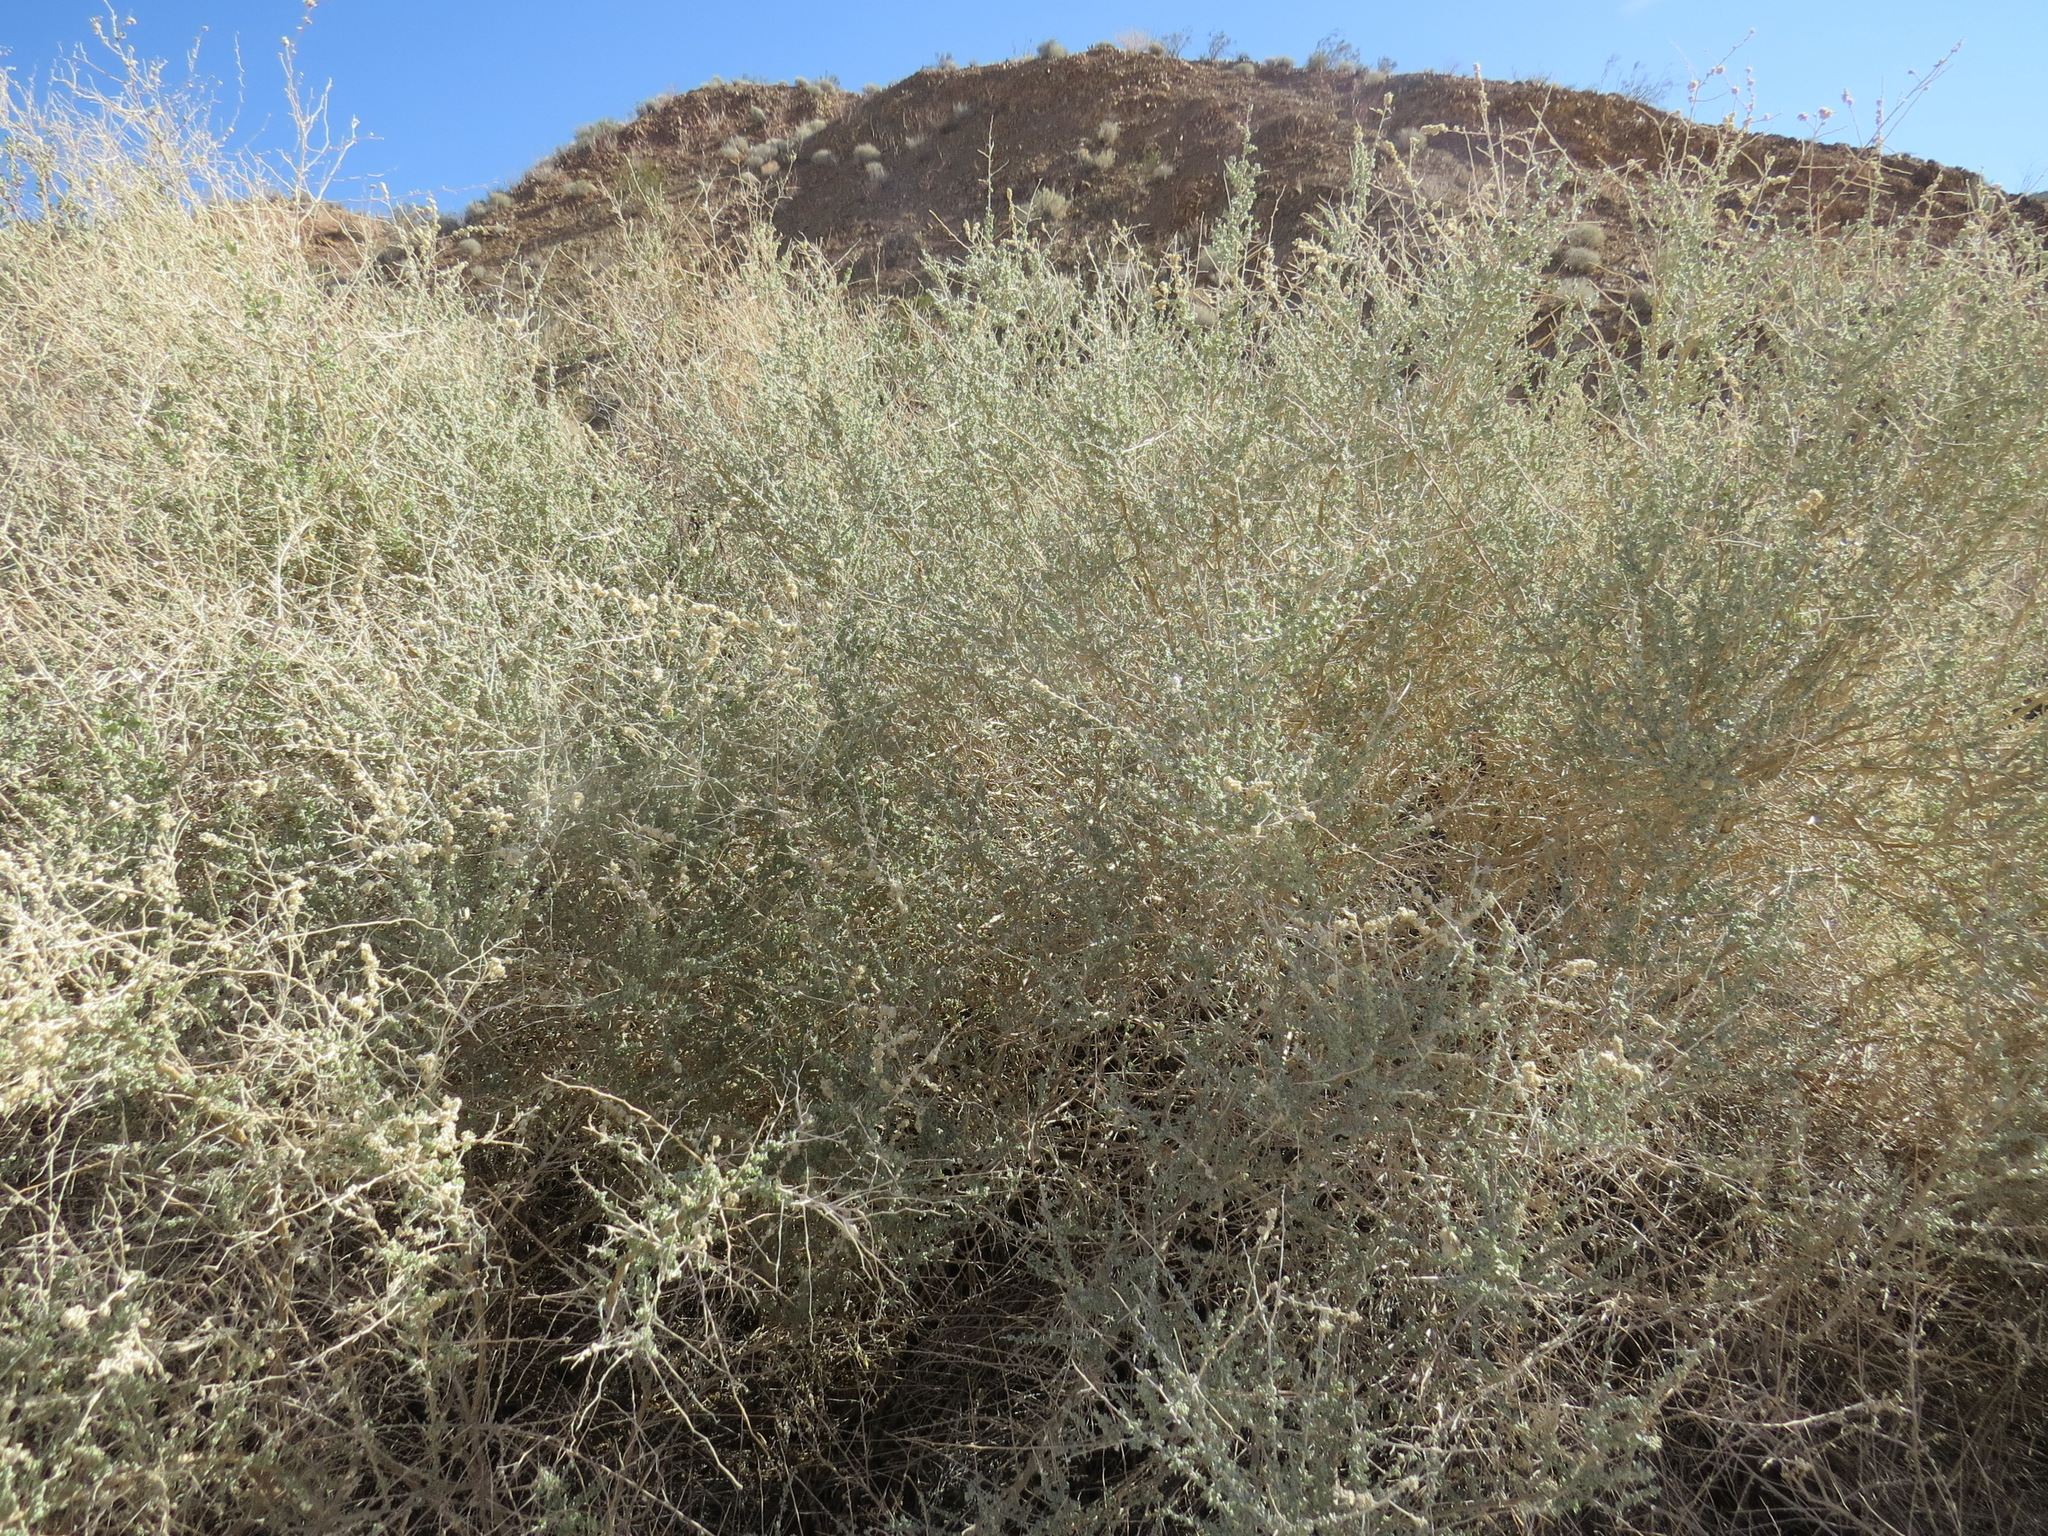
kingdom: Animalia
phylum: Arthropoda
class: Insecta
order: Diptera
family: Cecidomyiidae
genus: Asphondylia
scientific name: Asphondylia floccosa
